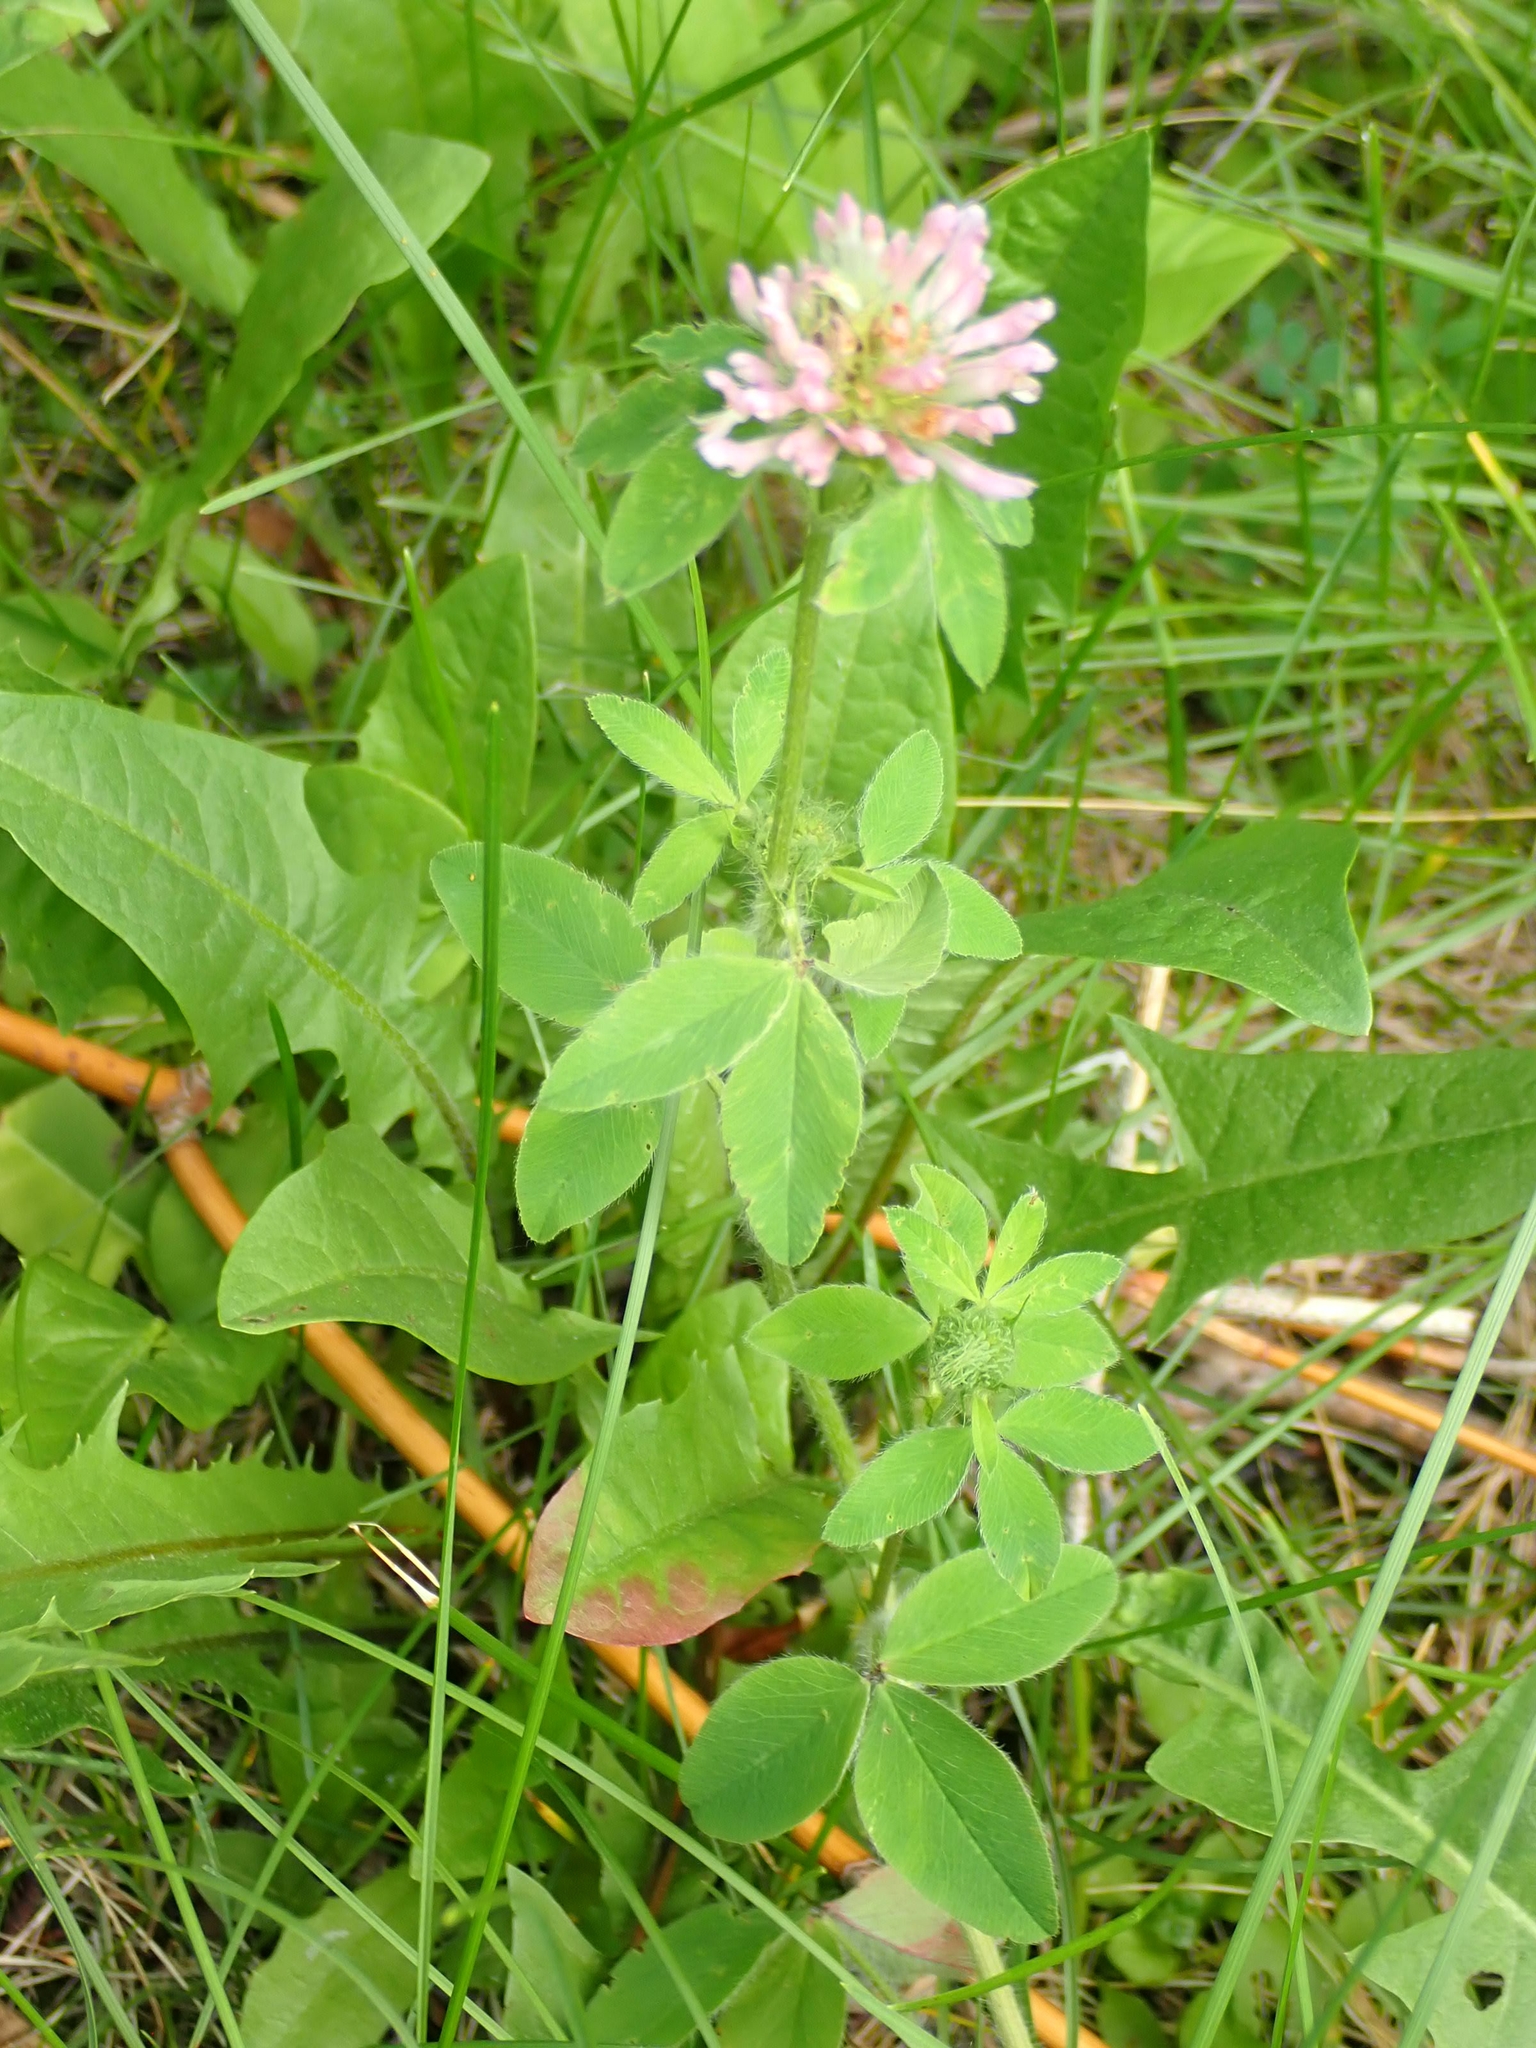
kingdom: Plantae
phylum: Tracheophyta
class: Magnoliopsida
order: Fabales
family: Fabaceae
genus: Trifolium
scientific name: Trifolium pratense
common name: Red clover
